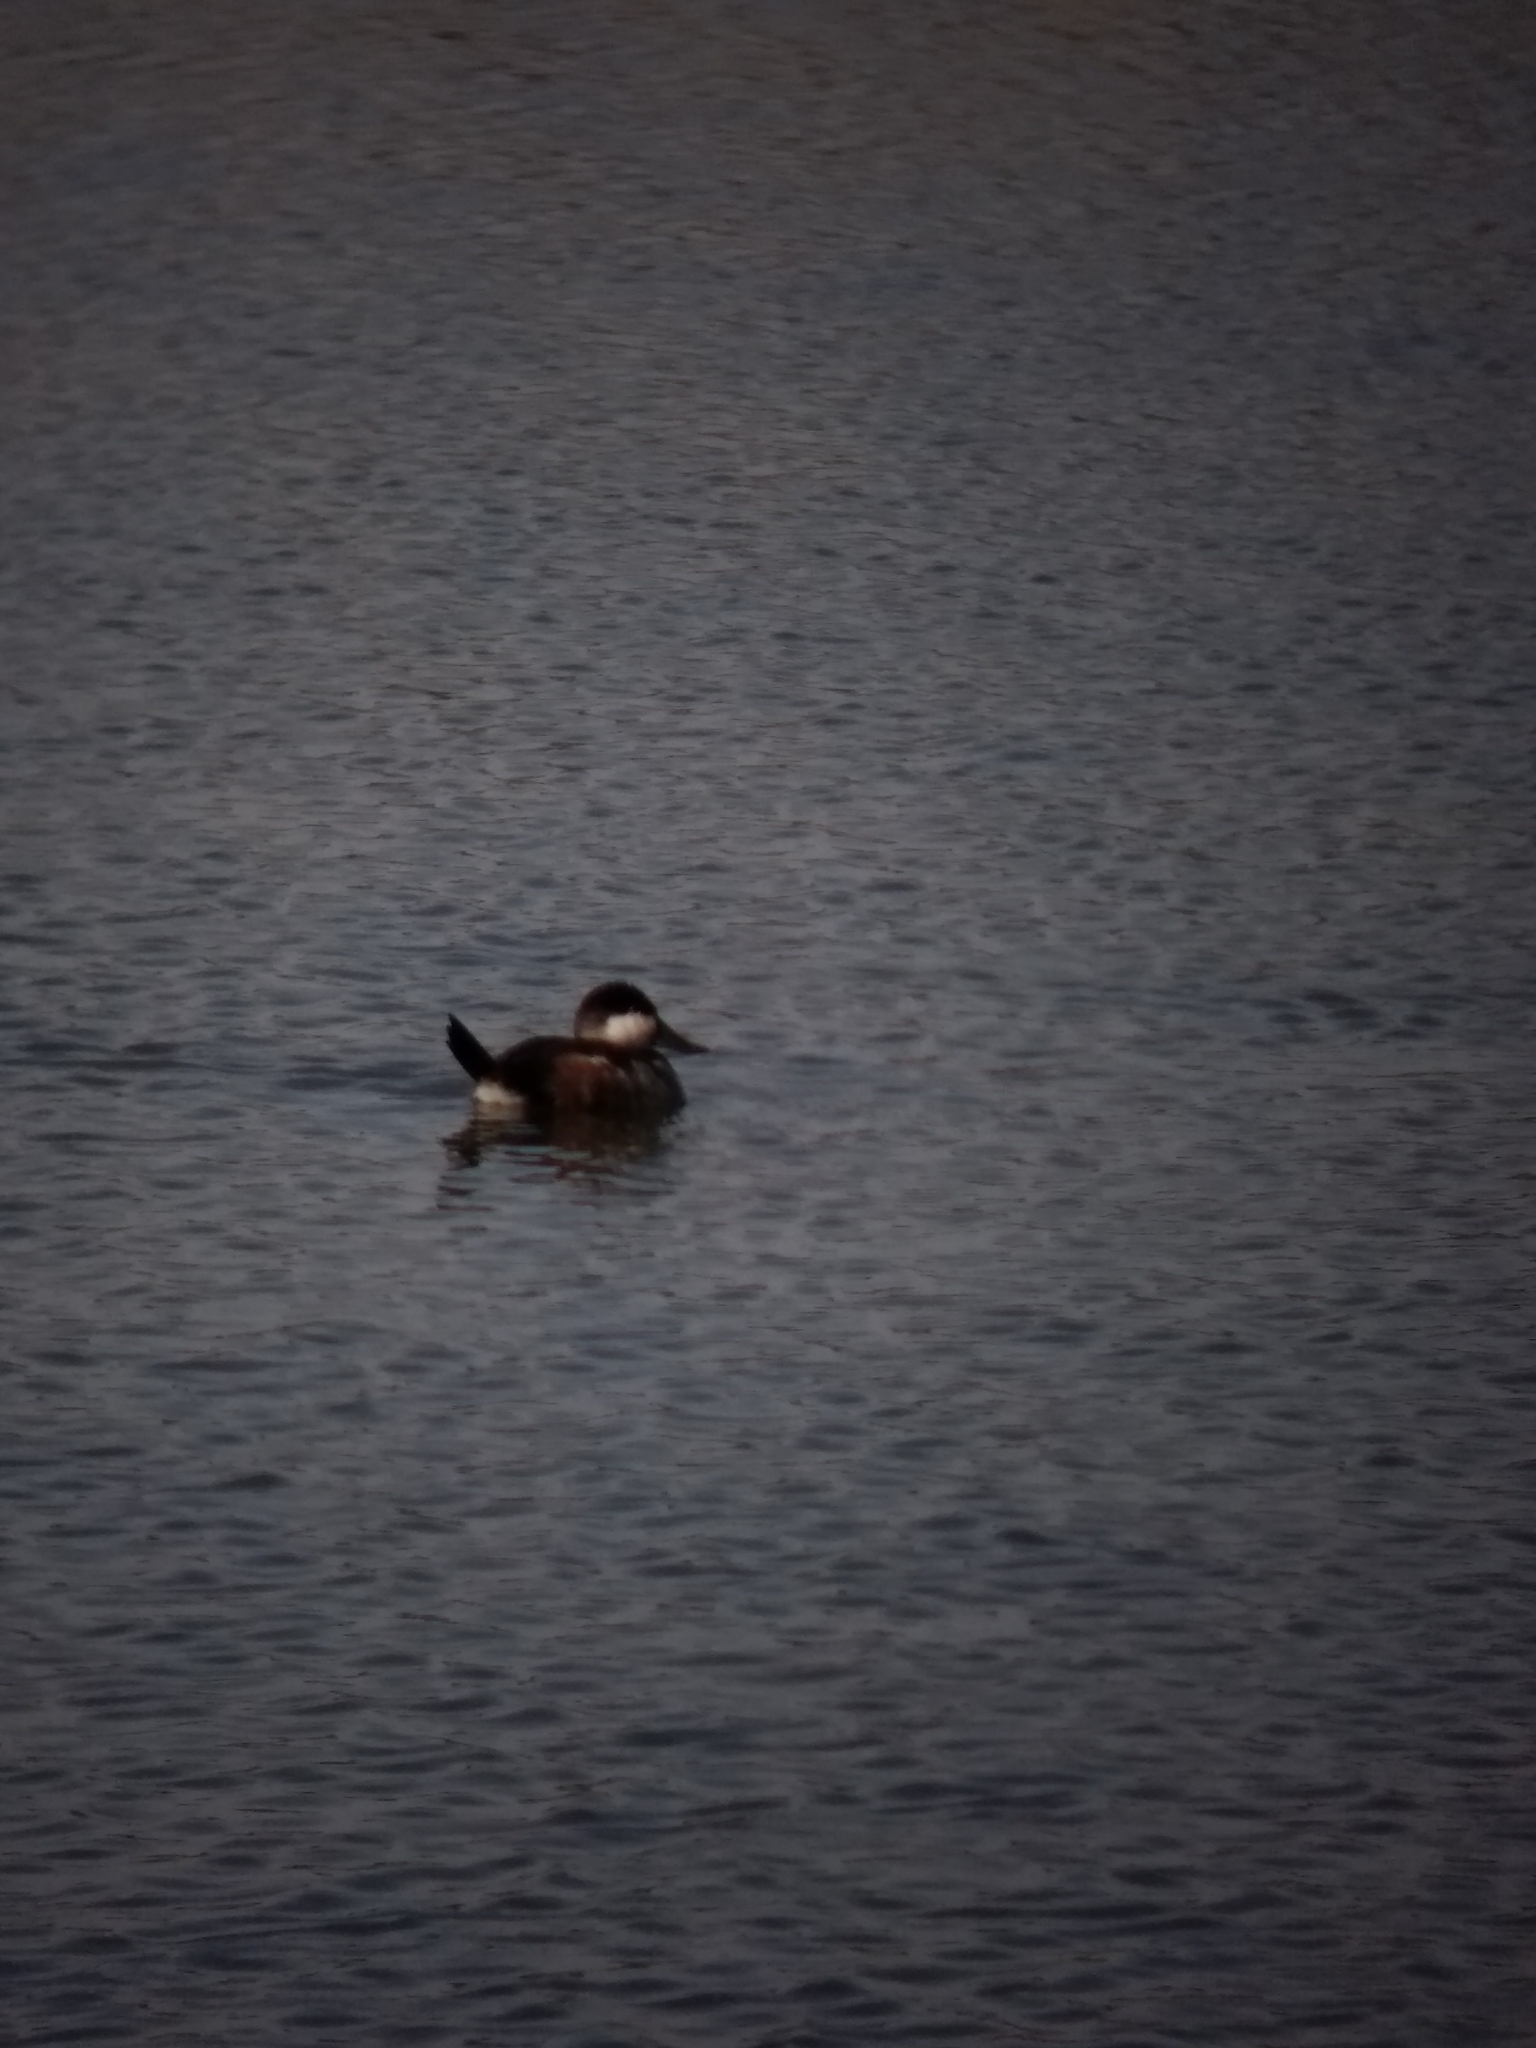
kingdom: Animalia
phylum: Chordata
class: Aves
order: Anseriformes
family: Anatidae
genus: Oxyura
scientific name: Oxyura jamaicensis
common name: Ruddy duck
